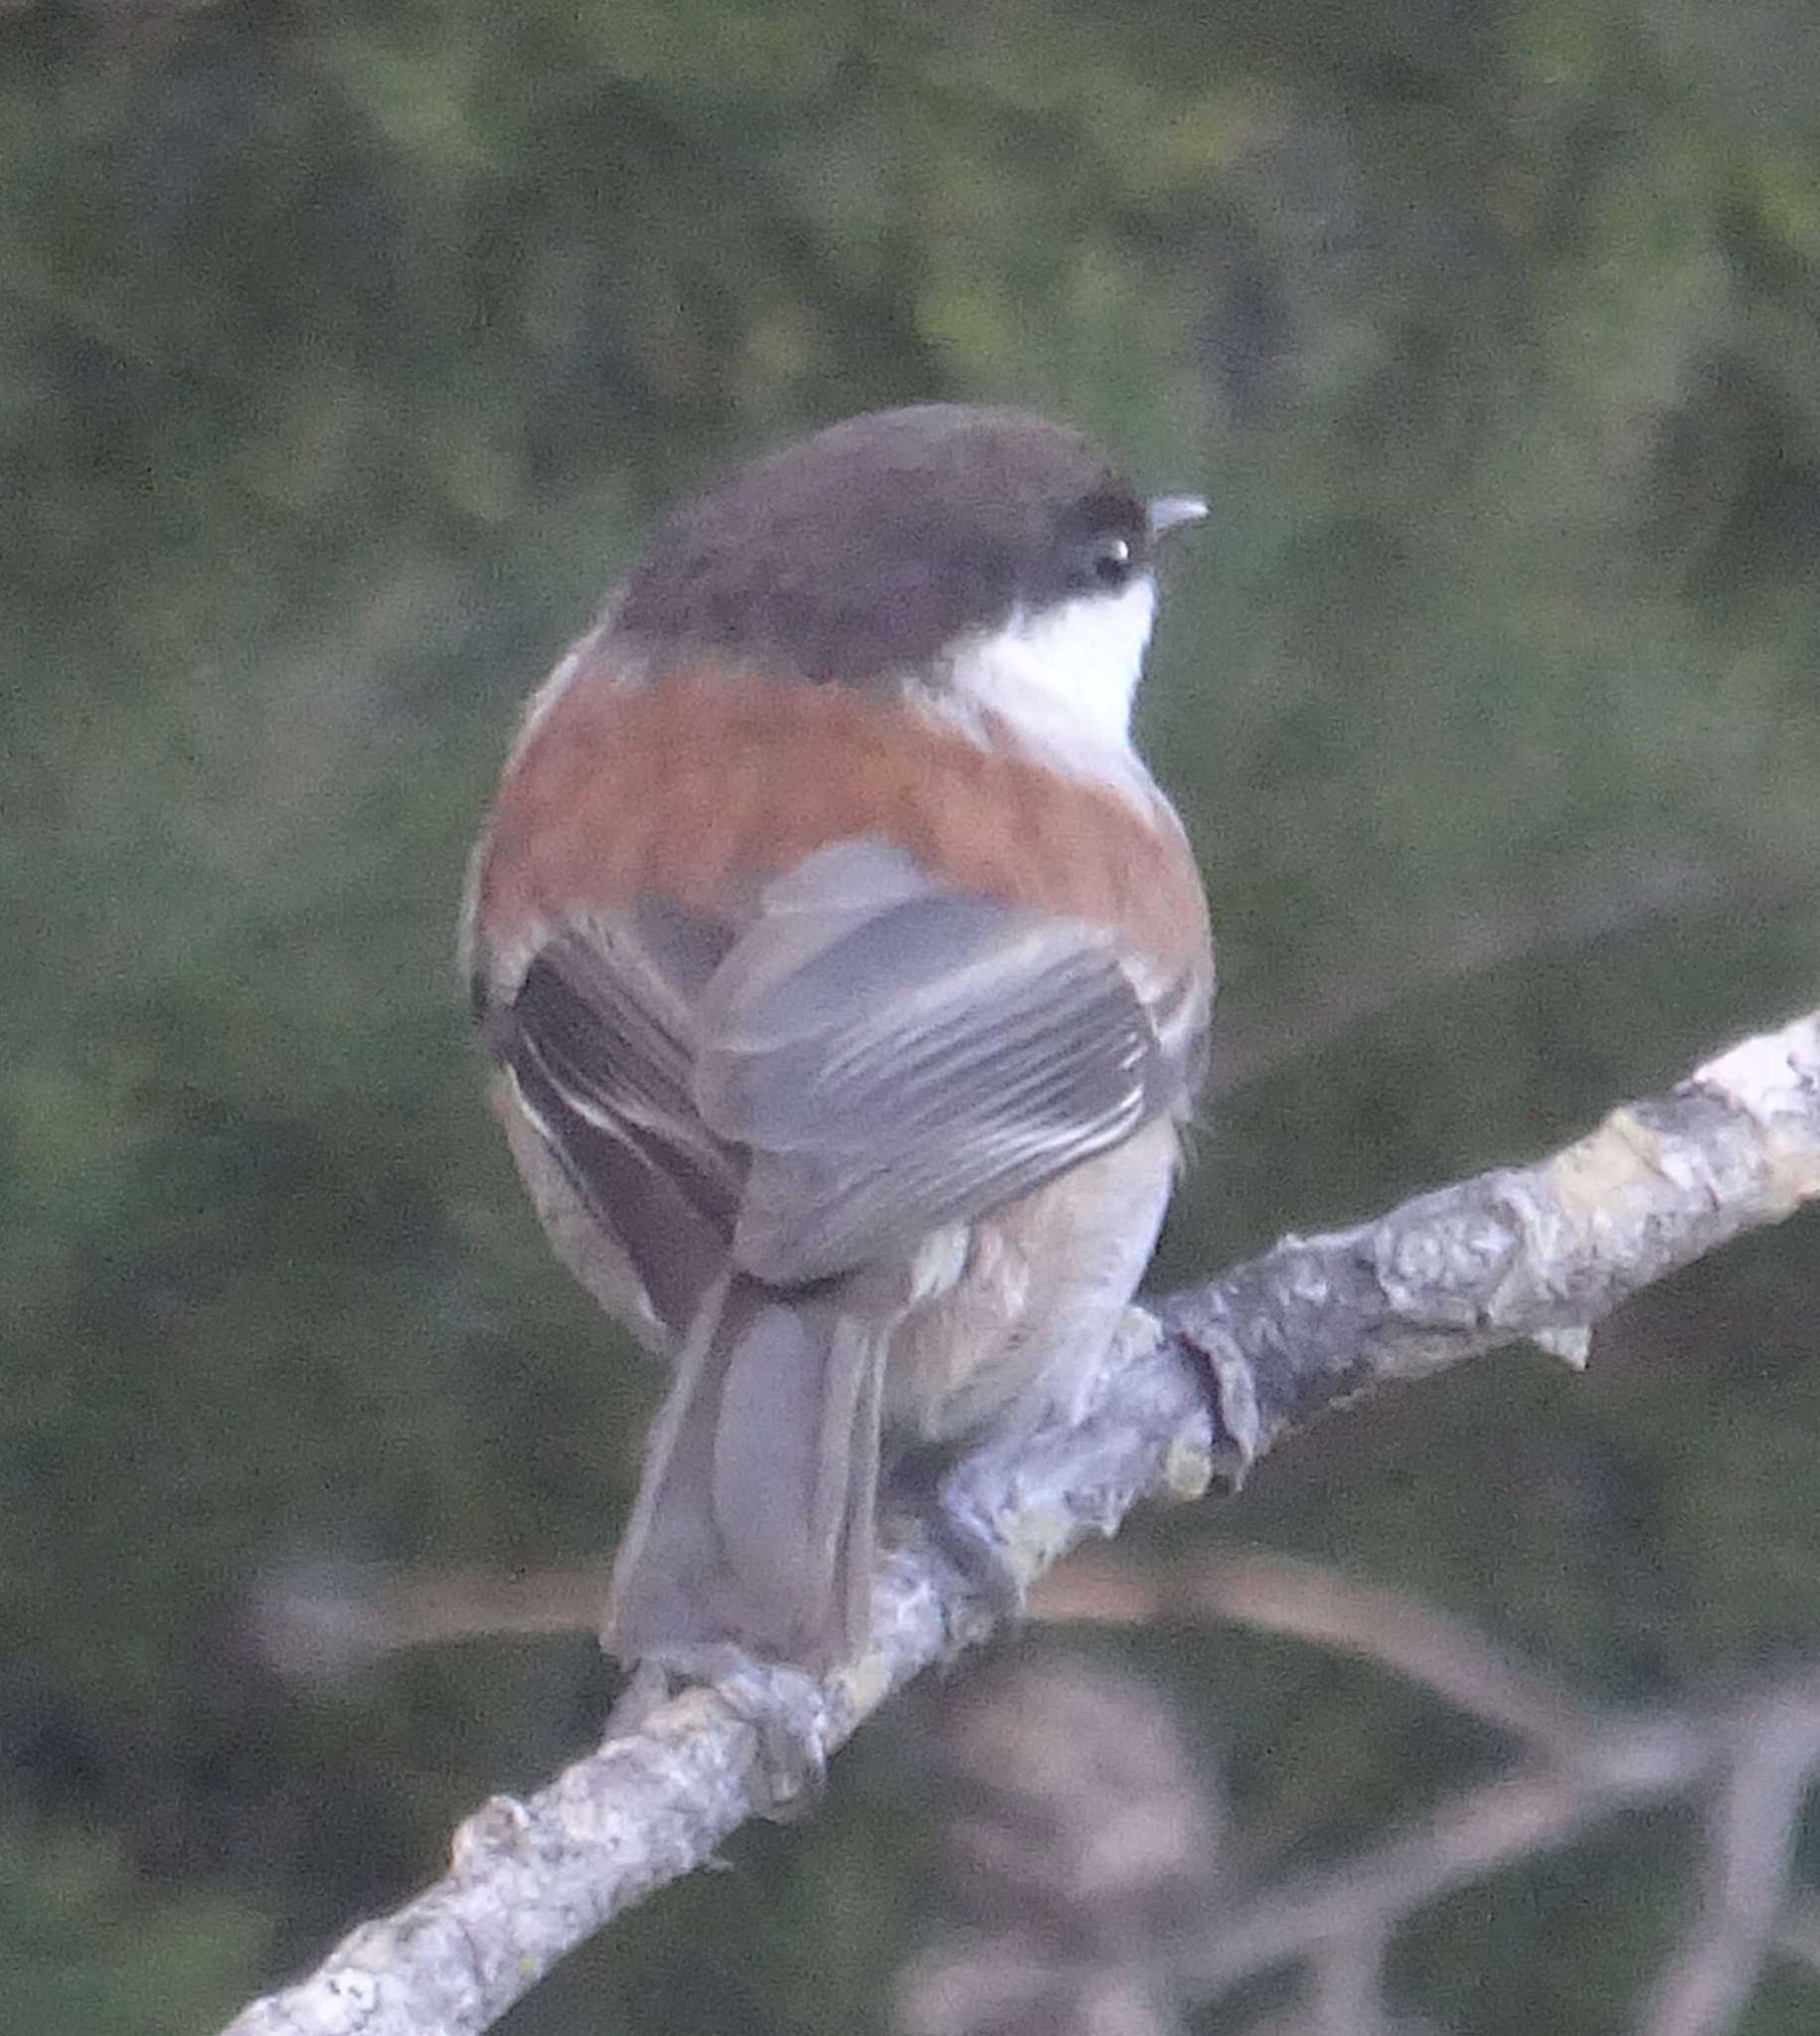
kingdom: Animalia
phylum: Chordata
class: Aves
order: Passeriformes
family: Paridae
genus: Poecile
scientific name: Poecile rufescens
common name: Chestnut-backed chickadee
